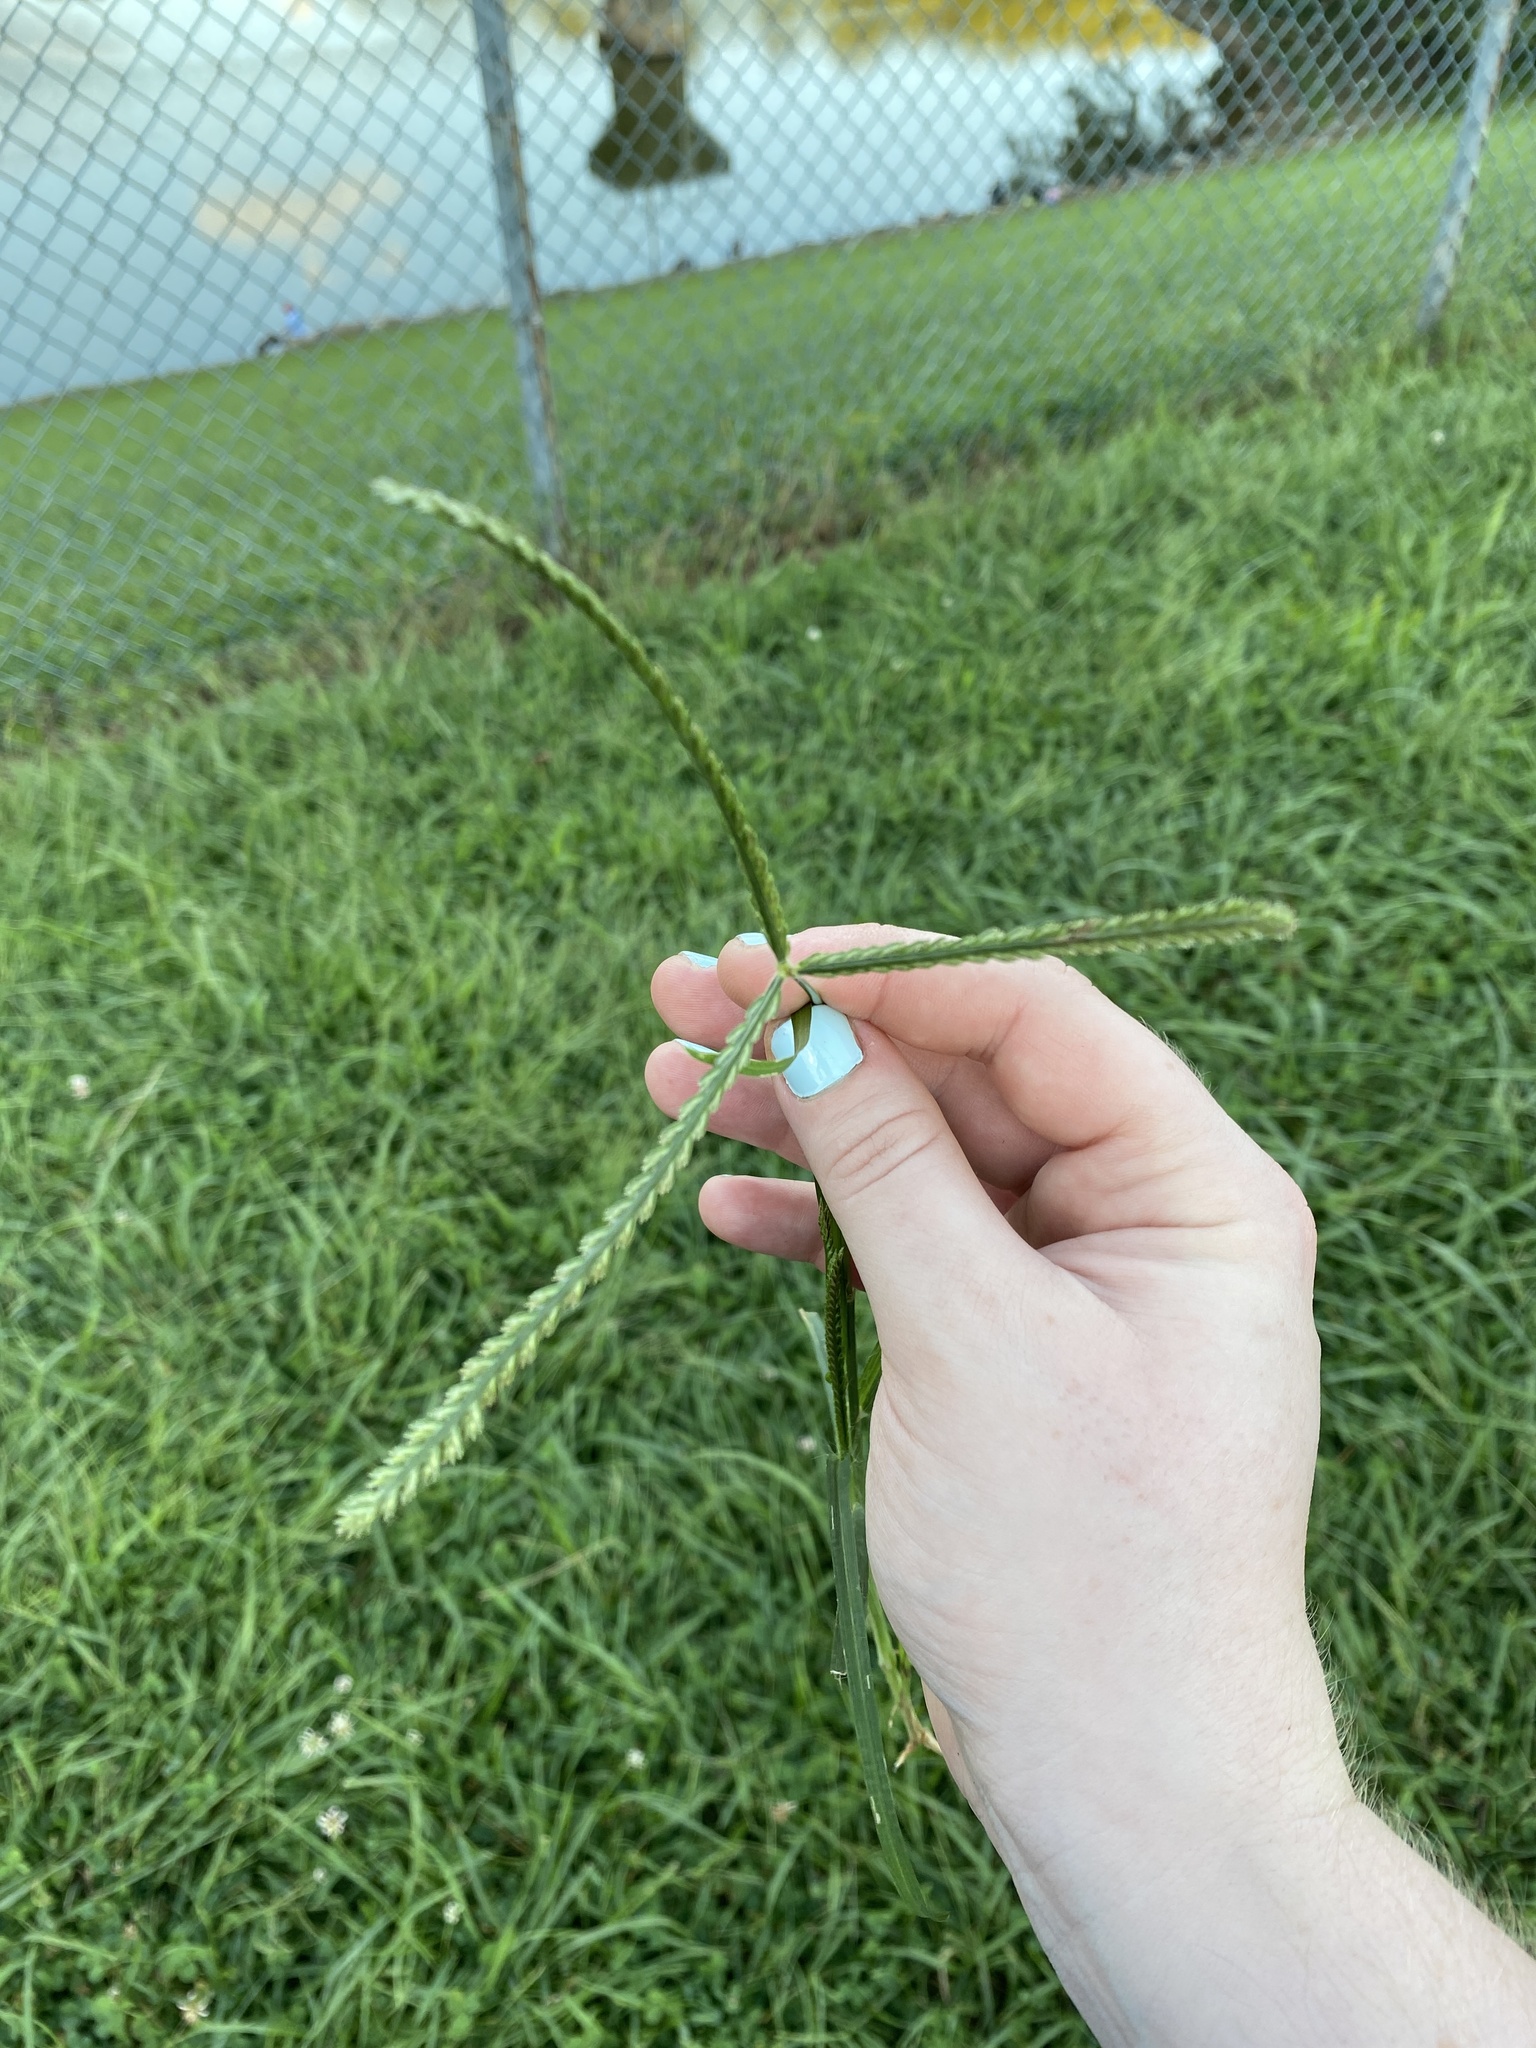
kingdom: Plantae
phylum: Tracheophyta
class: Liliopsida
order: Poales
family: Poaceae
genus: Eleusine
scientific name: Eleusine indica
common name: Yard-grass
